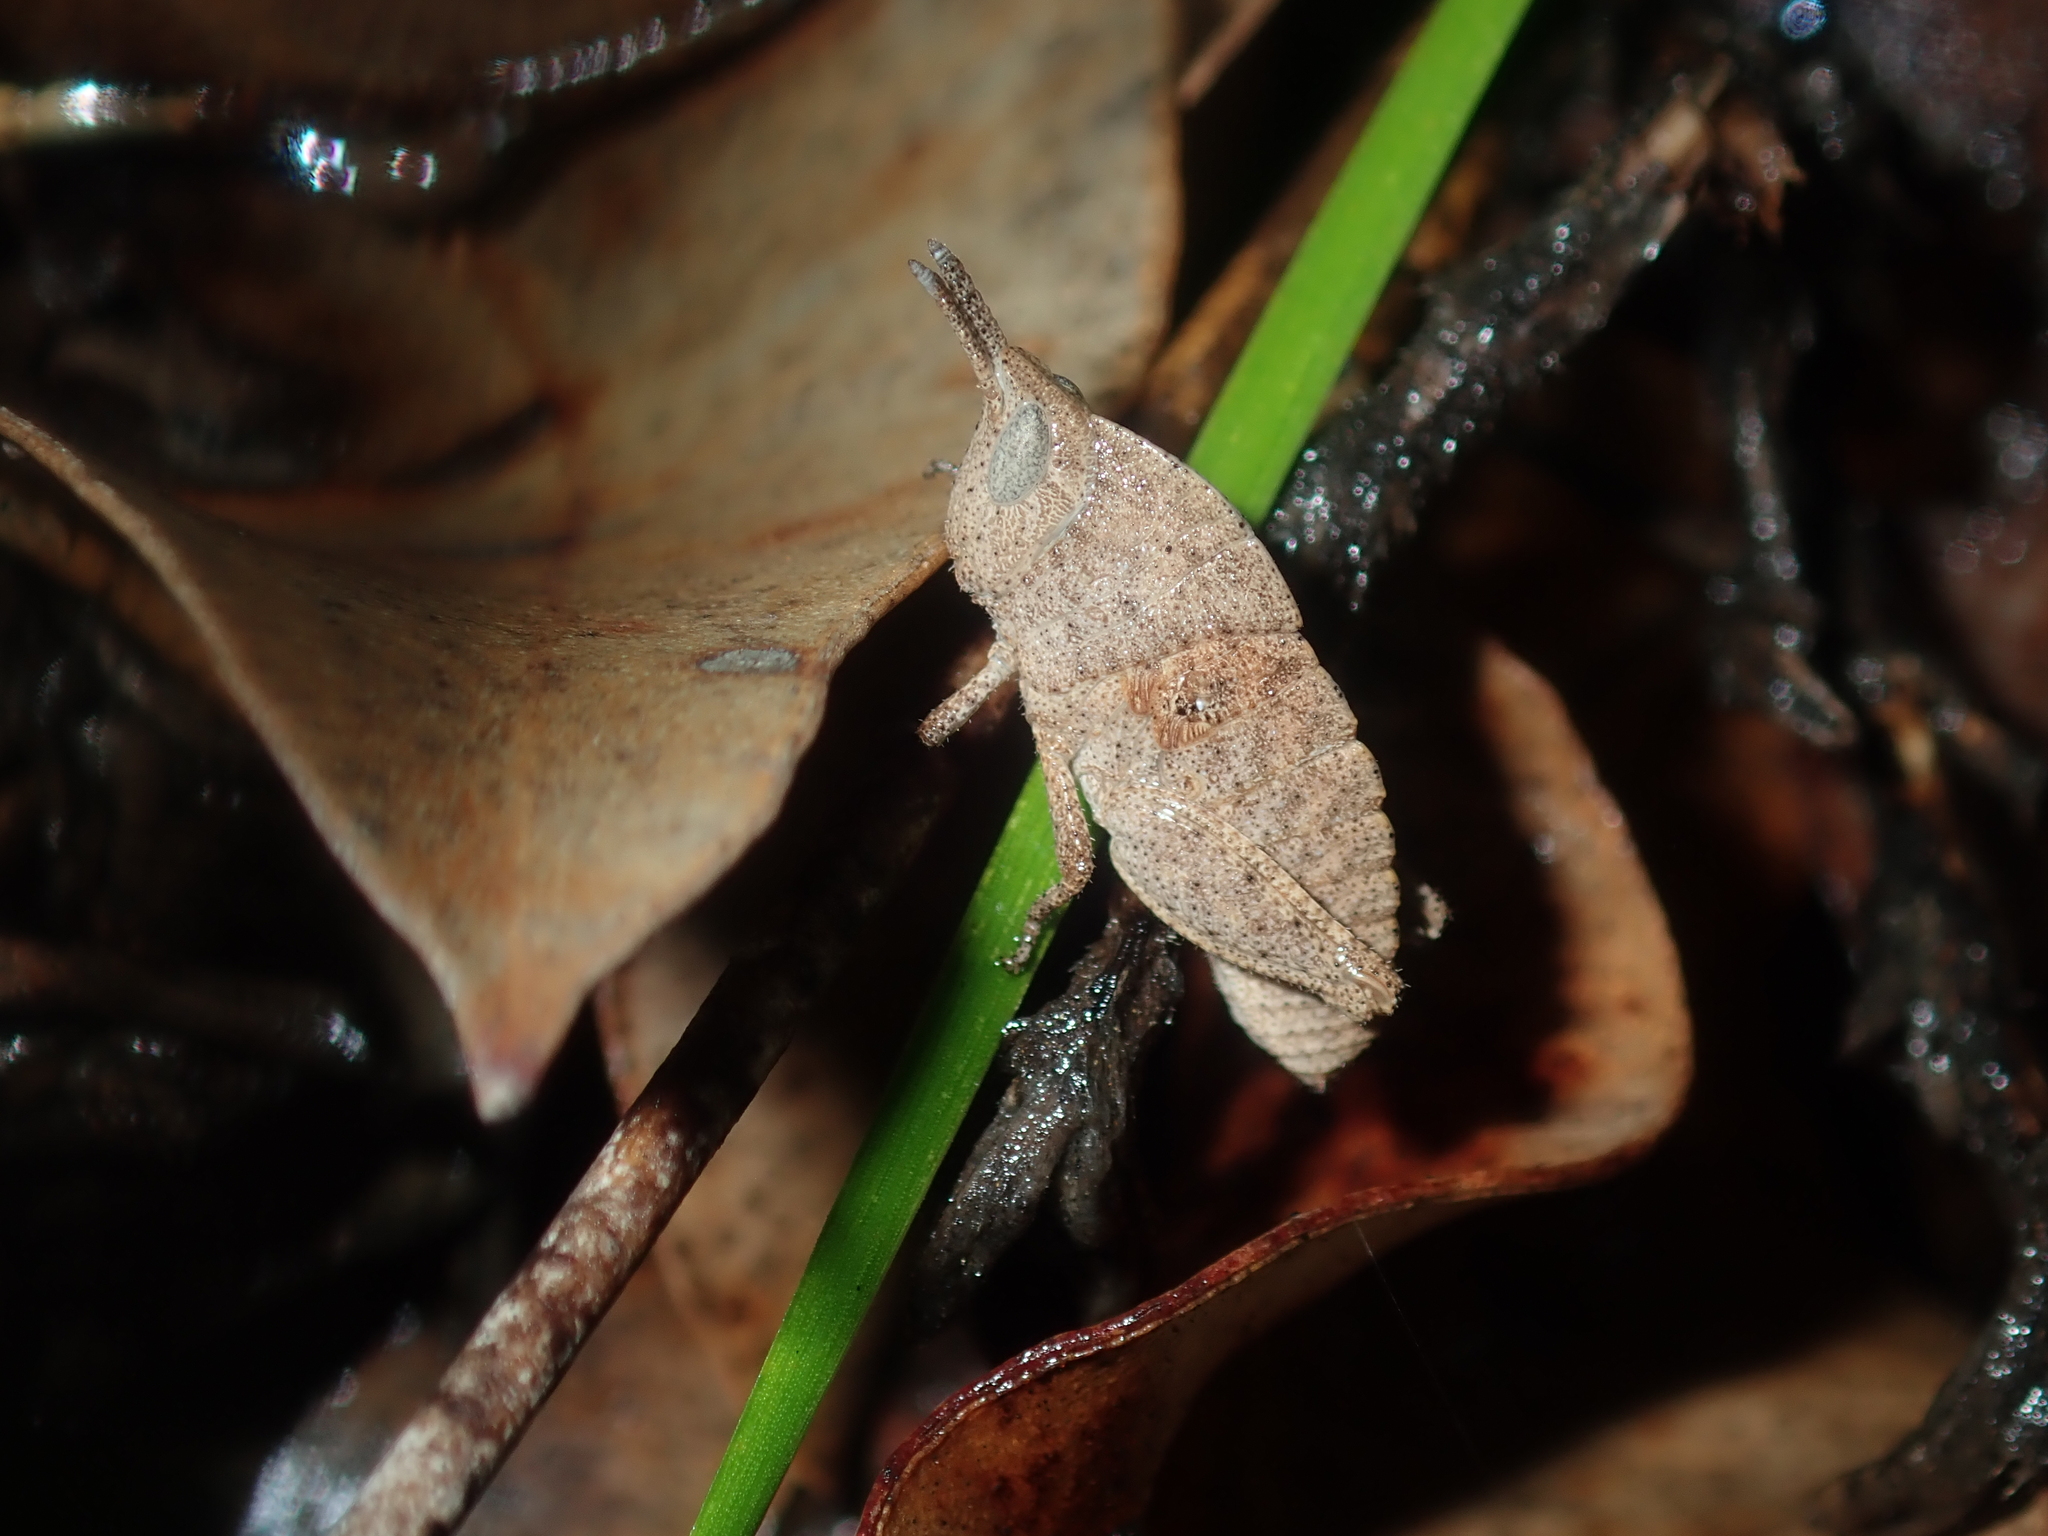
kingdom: Animalia
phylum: Arthropoda
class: Insecta
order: Orthoptera
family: Acrididae
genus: Goniaea
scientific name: Goniaea vocans
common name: Slender gumleaf grasshopper
